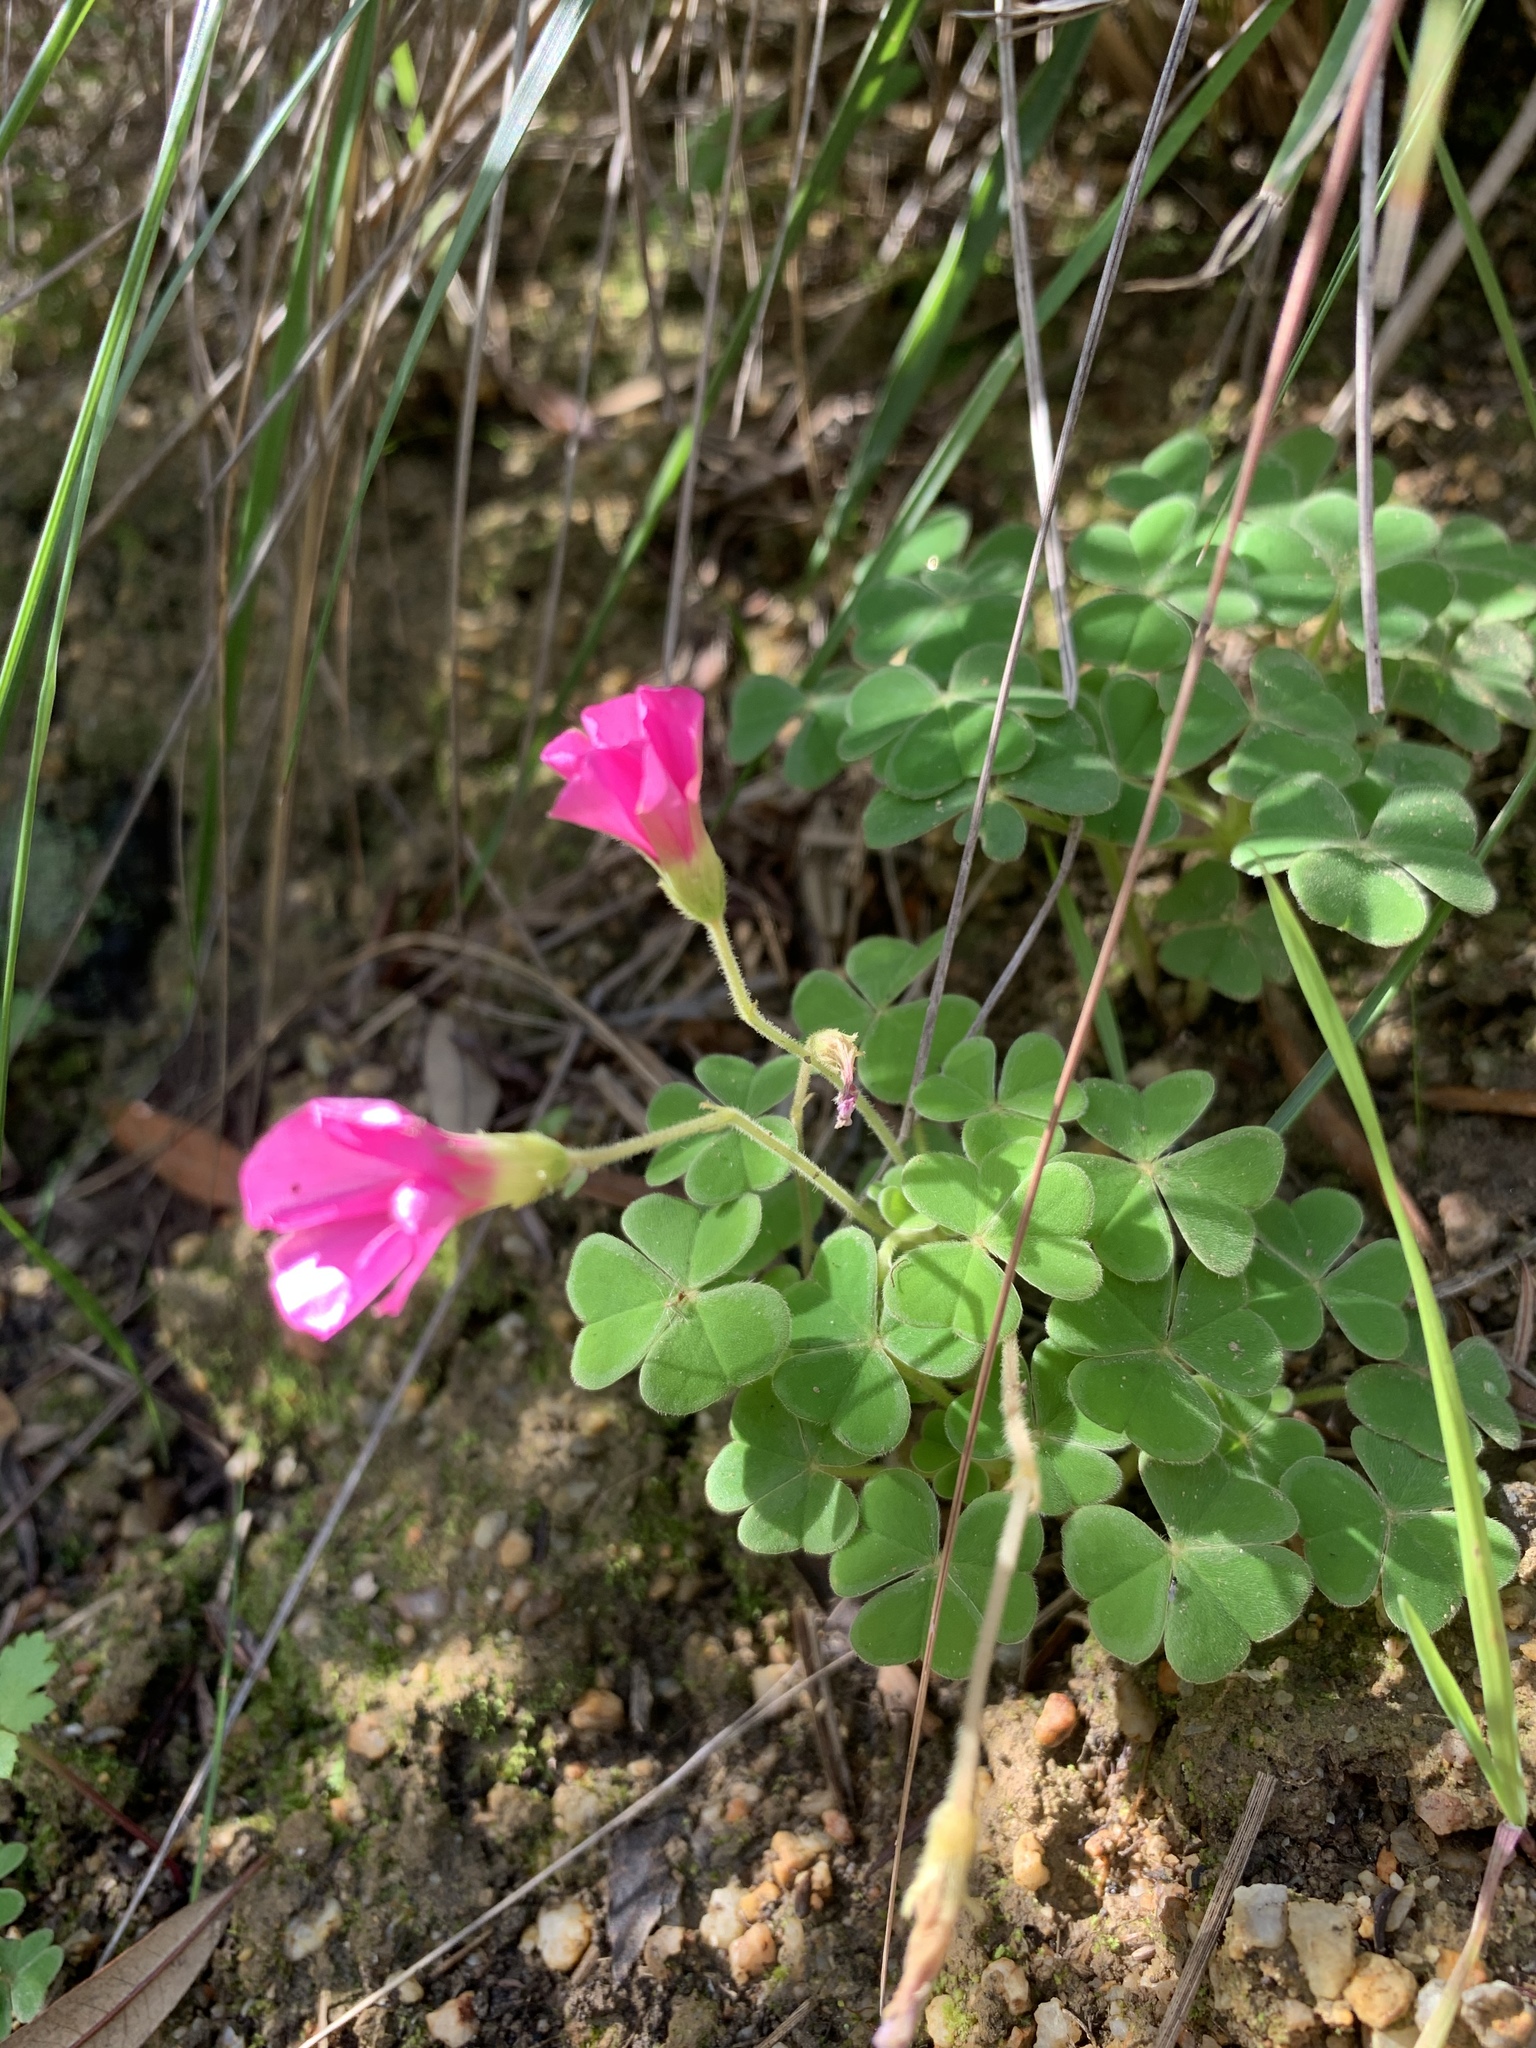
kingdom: Plantae
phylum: Tracheophyta
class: Magnoliopsida
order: Oxalidales
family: Oxalidaceae
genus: Oxalis
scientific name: Oxalis lanata
